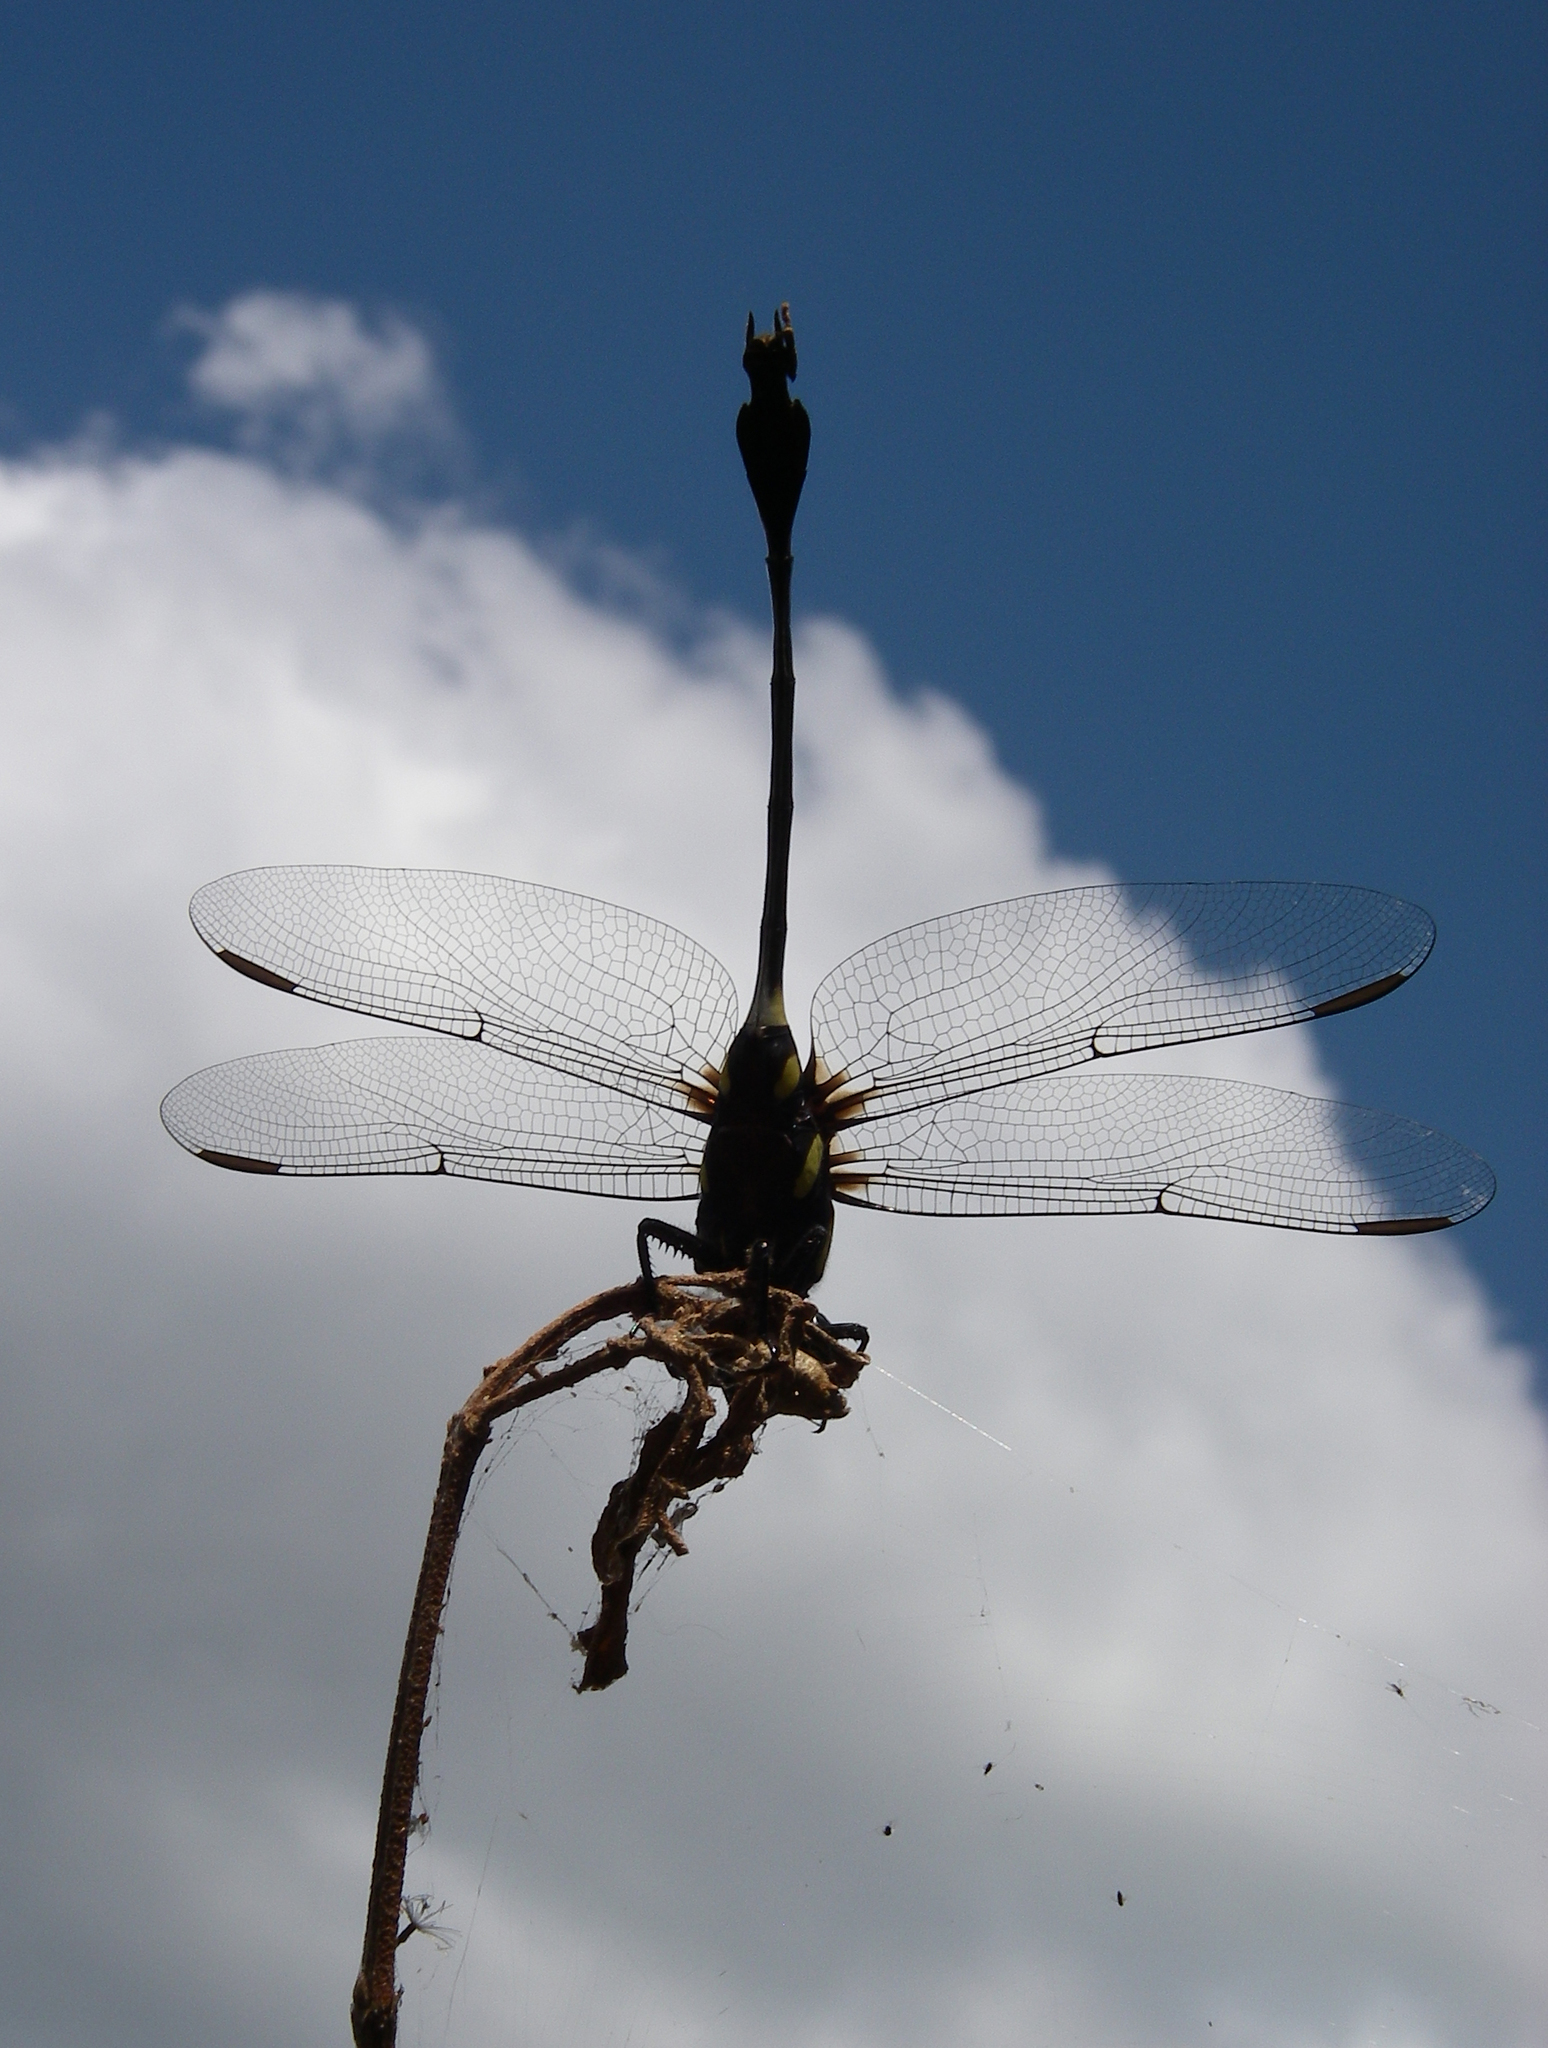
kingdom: Animalia
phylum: Arthropoda
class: Insecta
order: Odonata
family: Gomphidae
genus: Ictinogomphus
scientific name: Ictinogomphus decoratus
